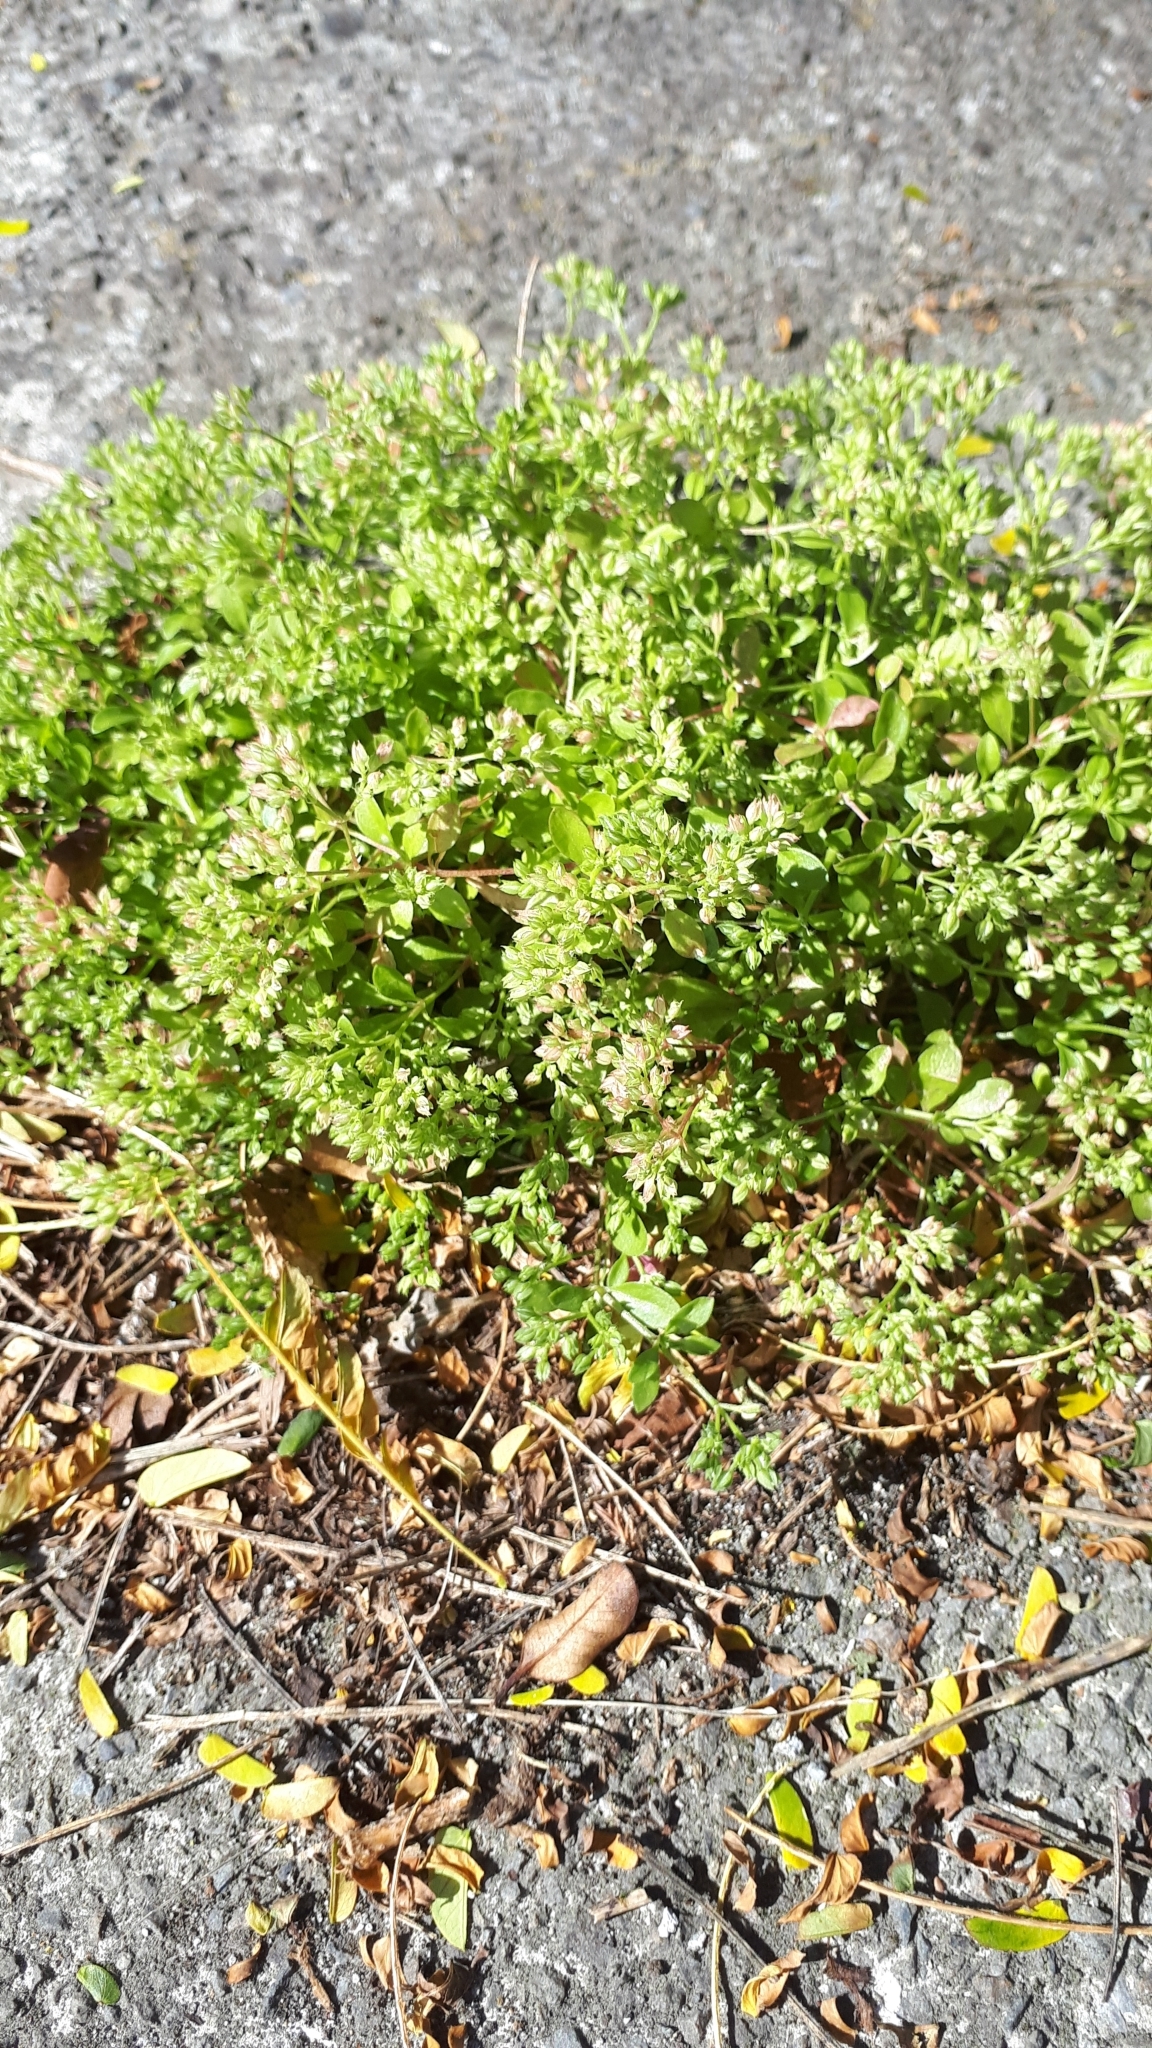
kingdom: Plantae
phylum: Tracheophyta
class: Magnoliopsida
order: Caryophyllales
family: Caryophyllaceae
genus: Polycarpon
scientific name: Polycarpon tetraphyllum
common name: Four-leaved all-seed
